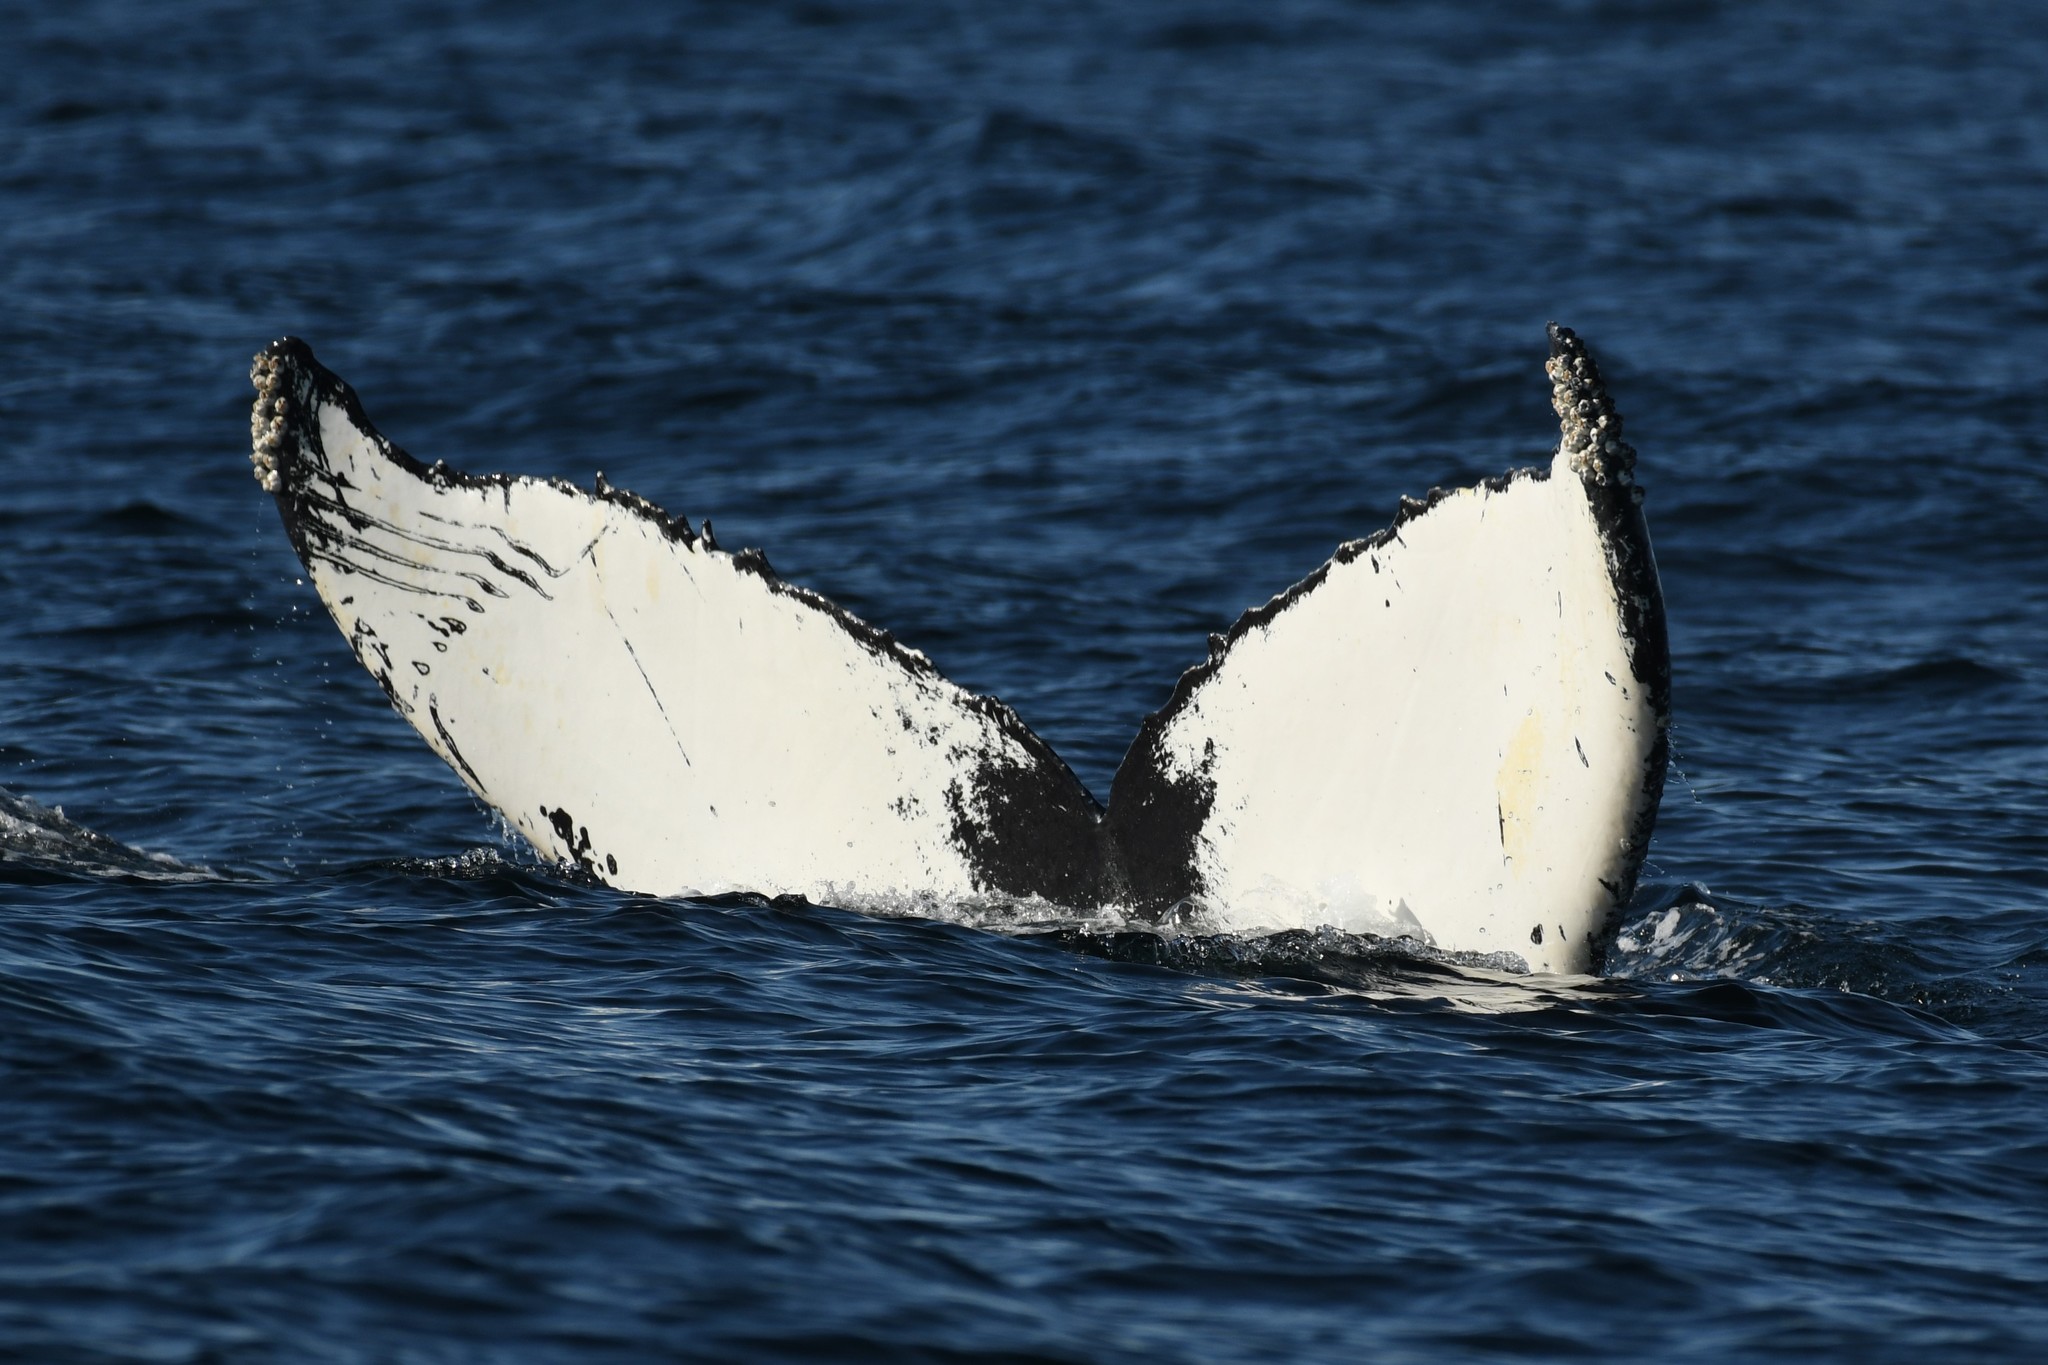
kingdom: Animalia
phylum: Chordata
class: Mammalia
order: Cetacea
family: Balaenopteridae
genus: Megaptera
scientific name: Megaptera novaeangliae
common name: Humpback whale
